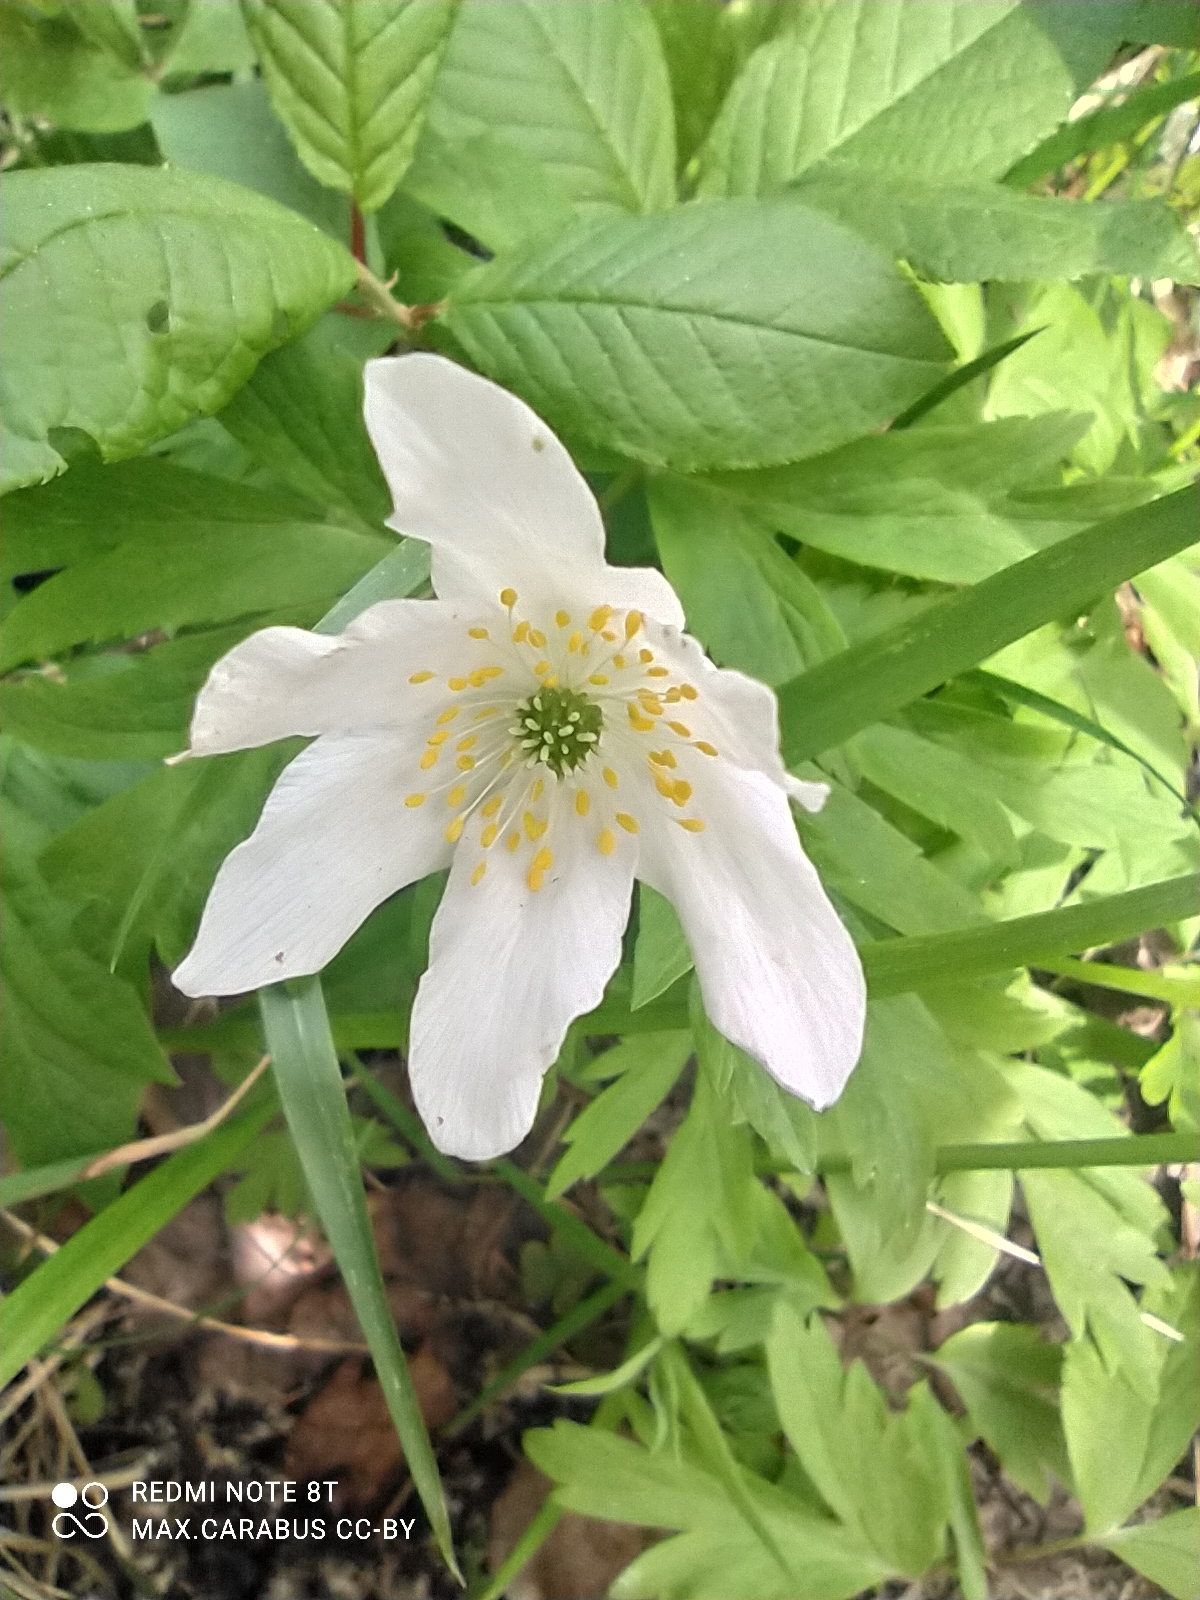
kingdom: Plantae
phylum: Tracheophyta
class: Magnoliopsida
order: Ranunculales
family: Ranunculaceae
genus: Anemone
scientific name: Anemone nemorosa
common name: Wood anemone
